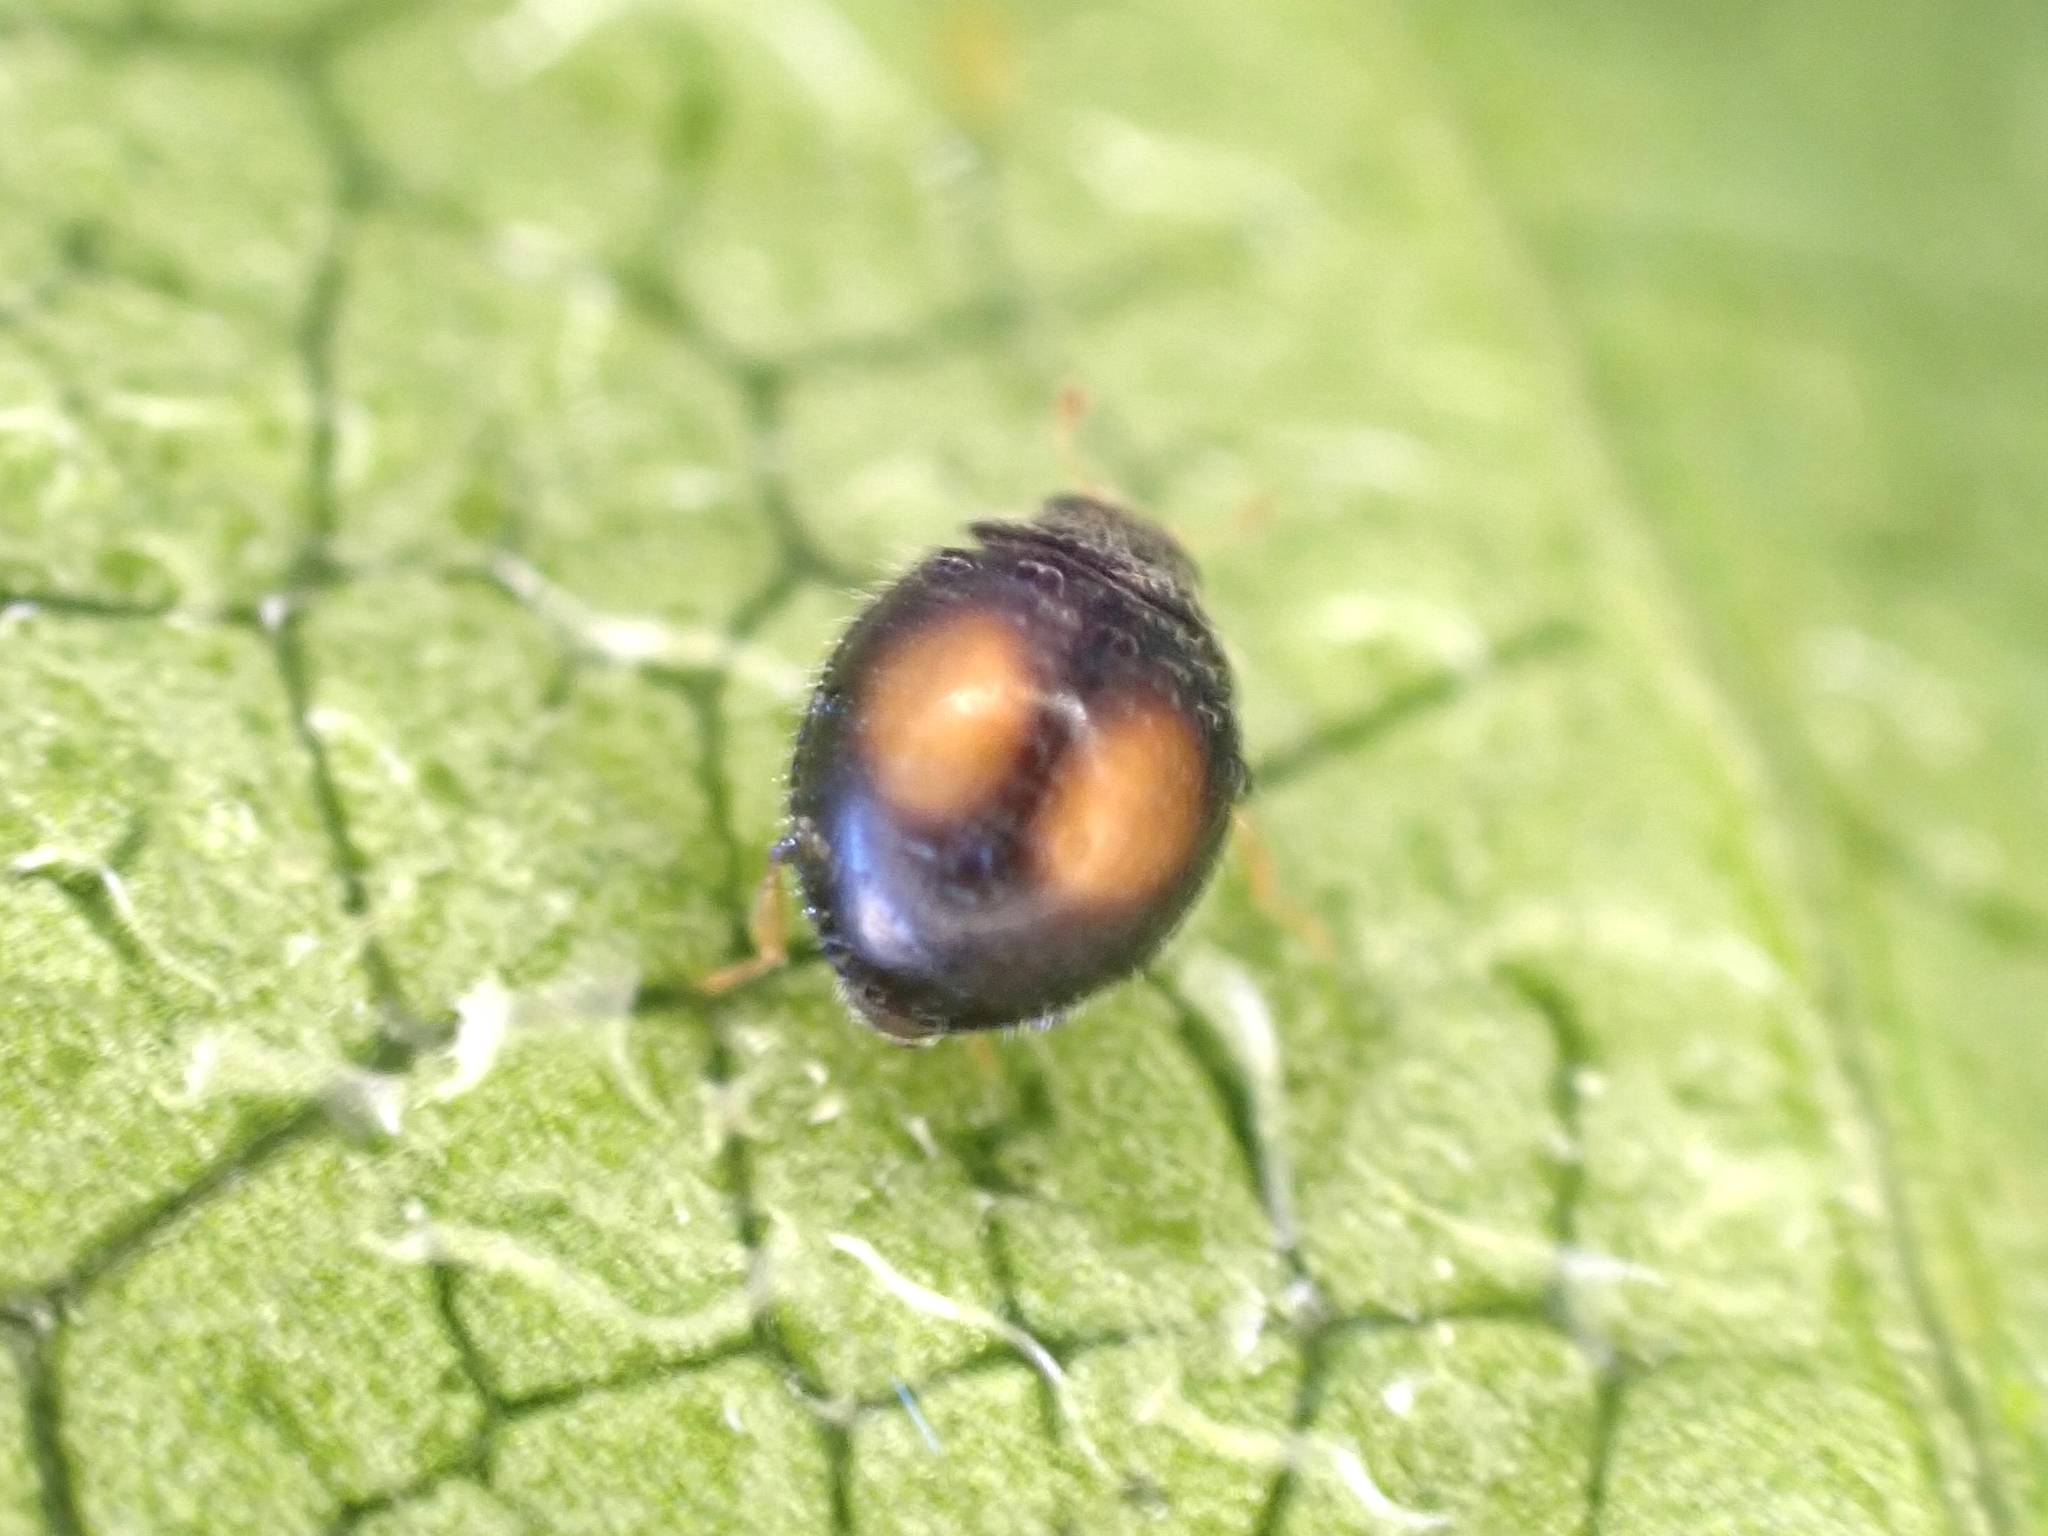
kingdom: Animalia
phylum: Arthropoda
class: Insecta
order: Coleoptera
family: Coccinellidae
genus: Serangium
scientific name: Serangium maculigerum
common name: Lady beetle
